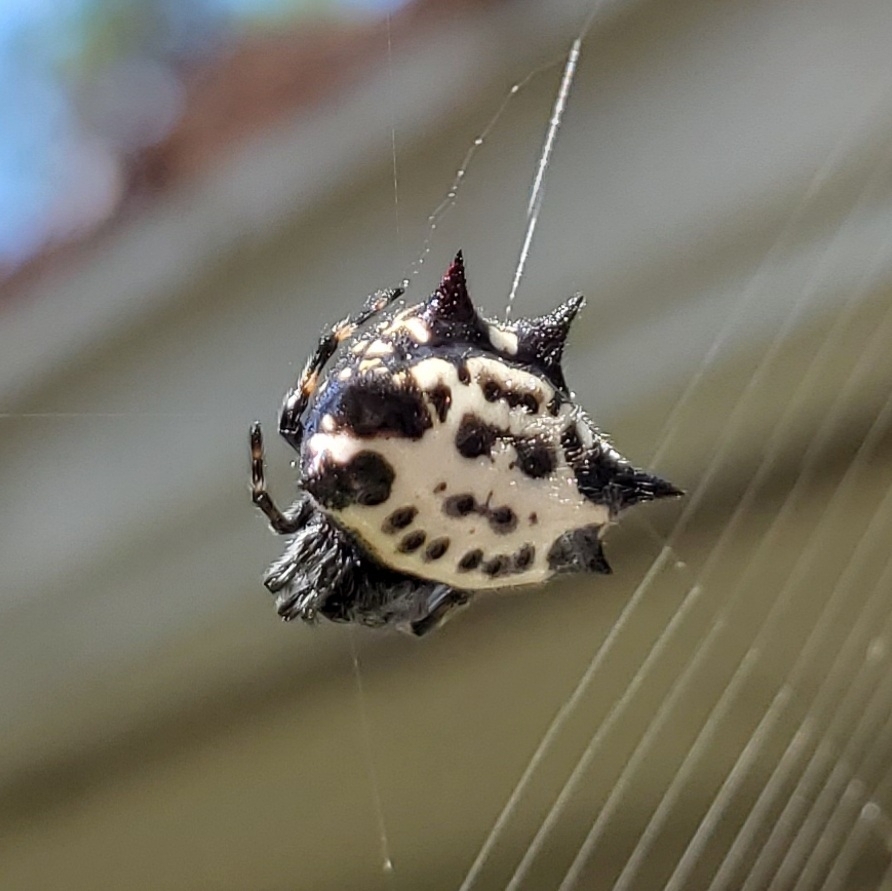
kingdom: Animalia
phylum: Arthropoda
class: Arachnida
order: Araneae
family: Araneidae
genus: Gasteracantha
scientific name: Gasteracantha cancriformis
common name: Orb weavers
